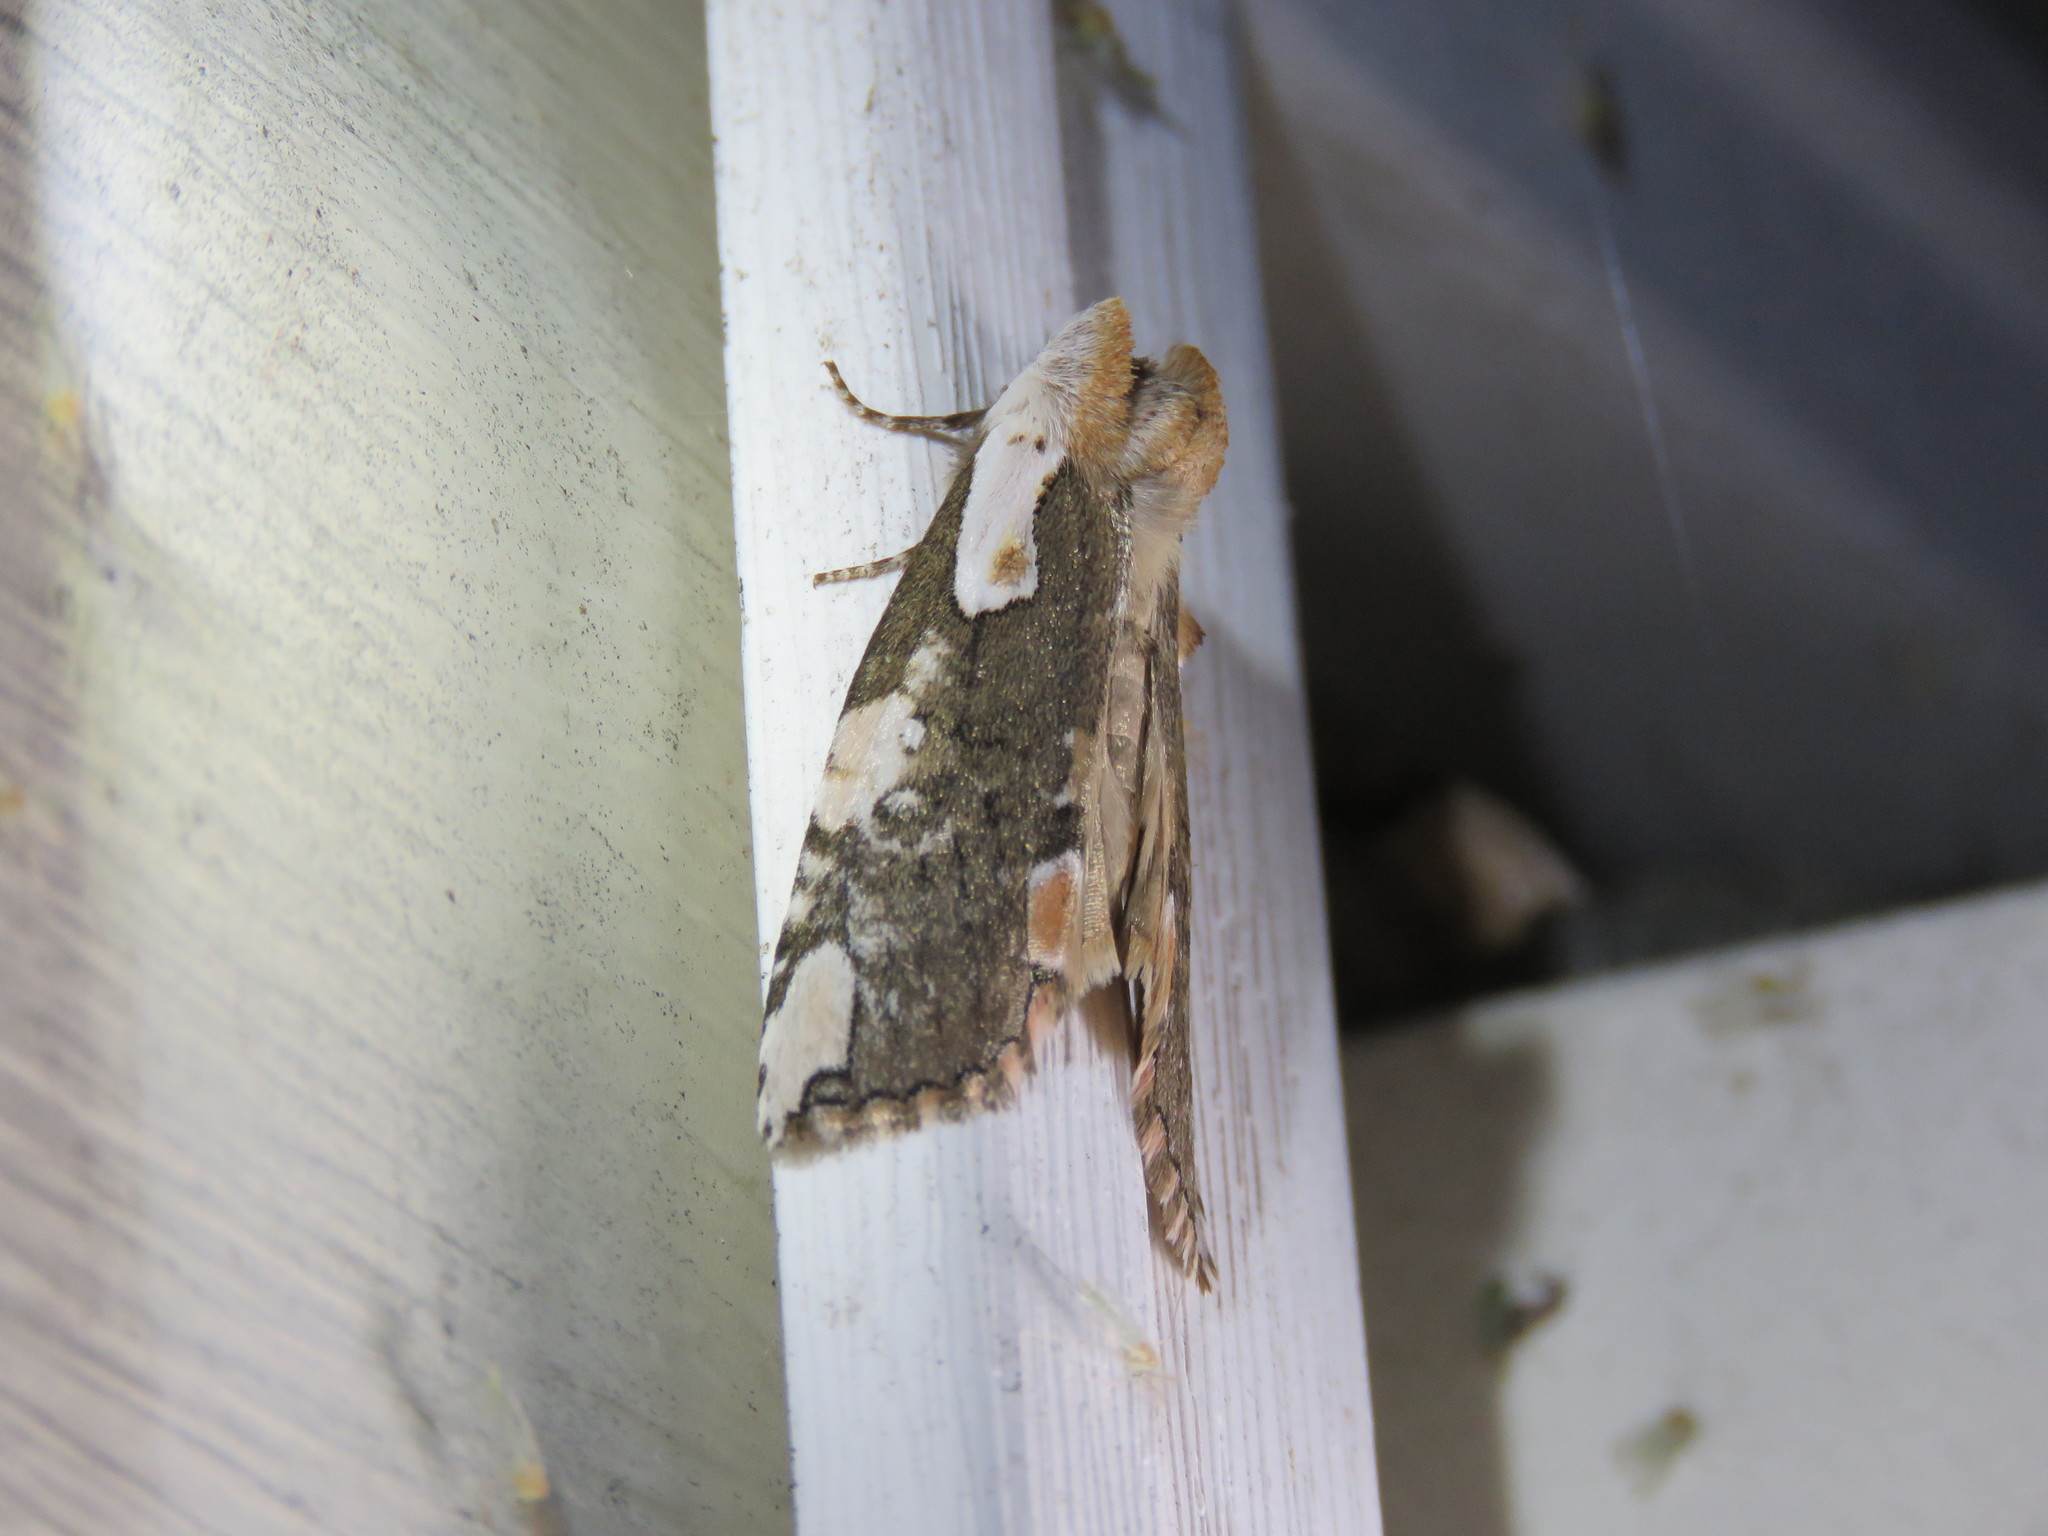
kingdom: Animalia
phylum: Arthropoda
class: Insecta
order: Lepidoptera
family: Drepanidae
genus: Euthyatira
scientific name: Euthyatira pudens
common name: Dogwood thyatirid moth
